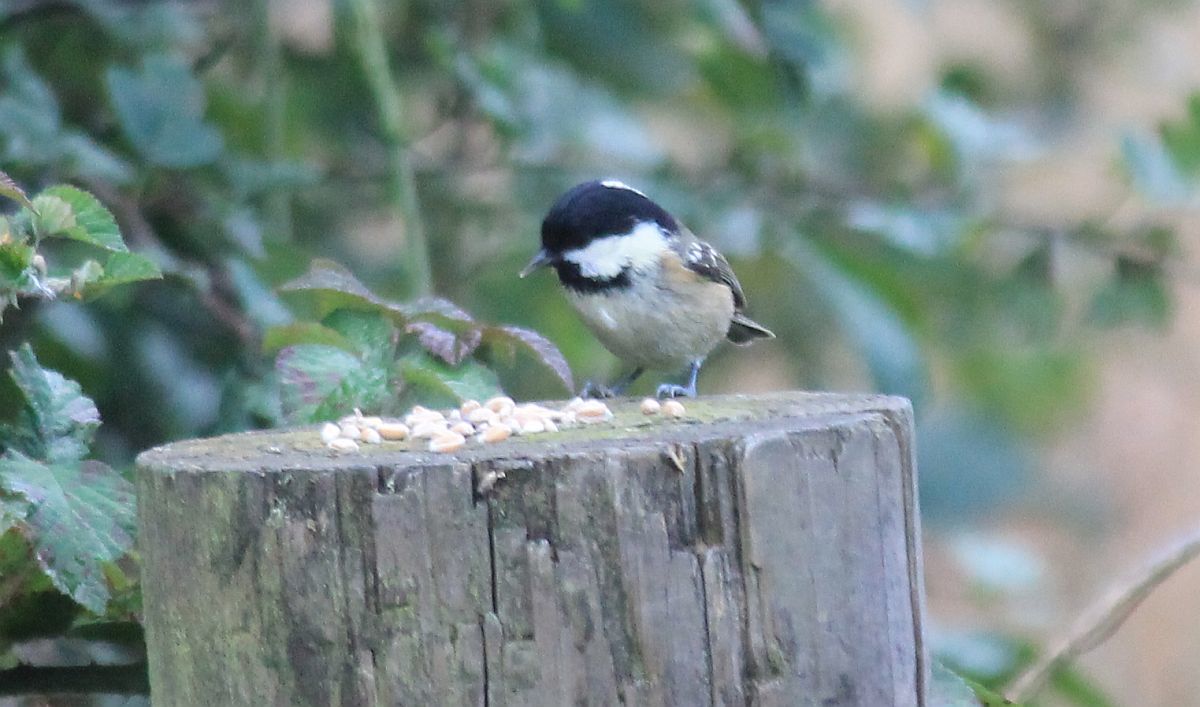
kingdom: Animalia
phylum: Chordata
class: Aves
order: Passeriformes
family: Paridae
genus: Periparus
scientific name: Periparus ater
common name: Coal tit
